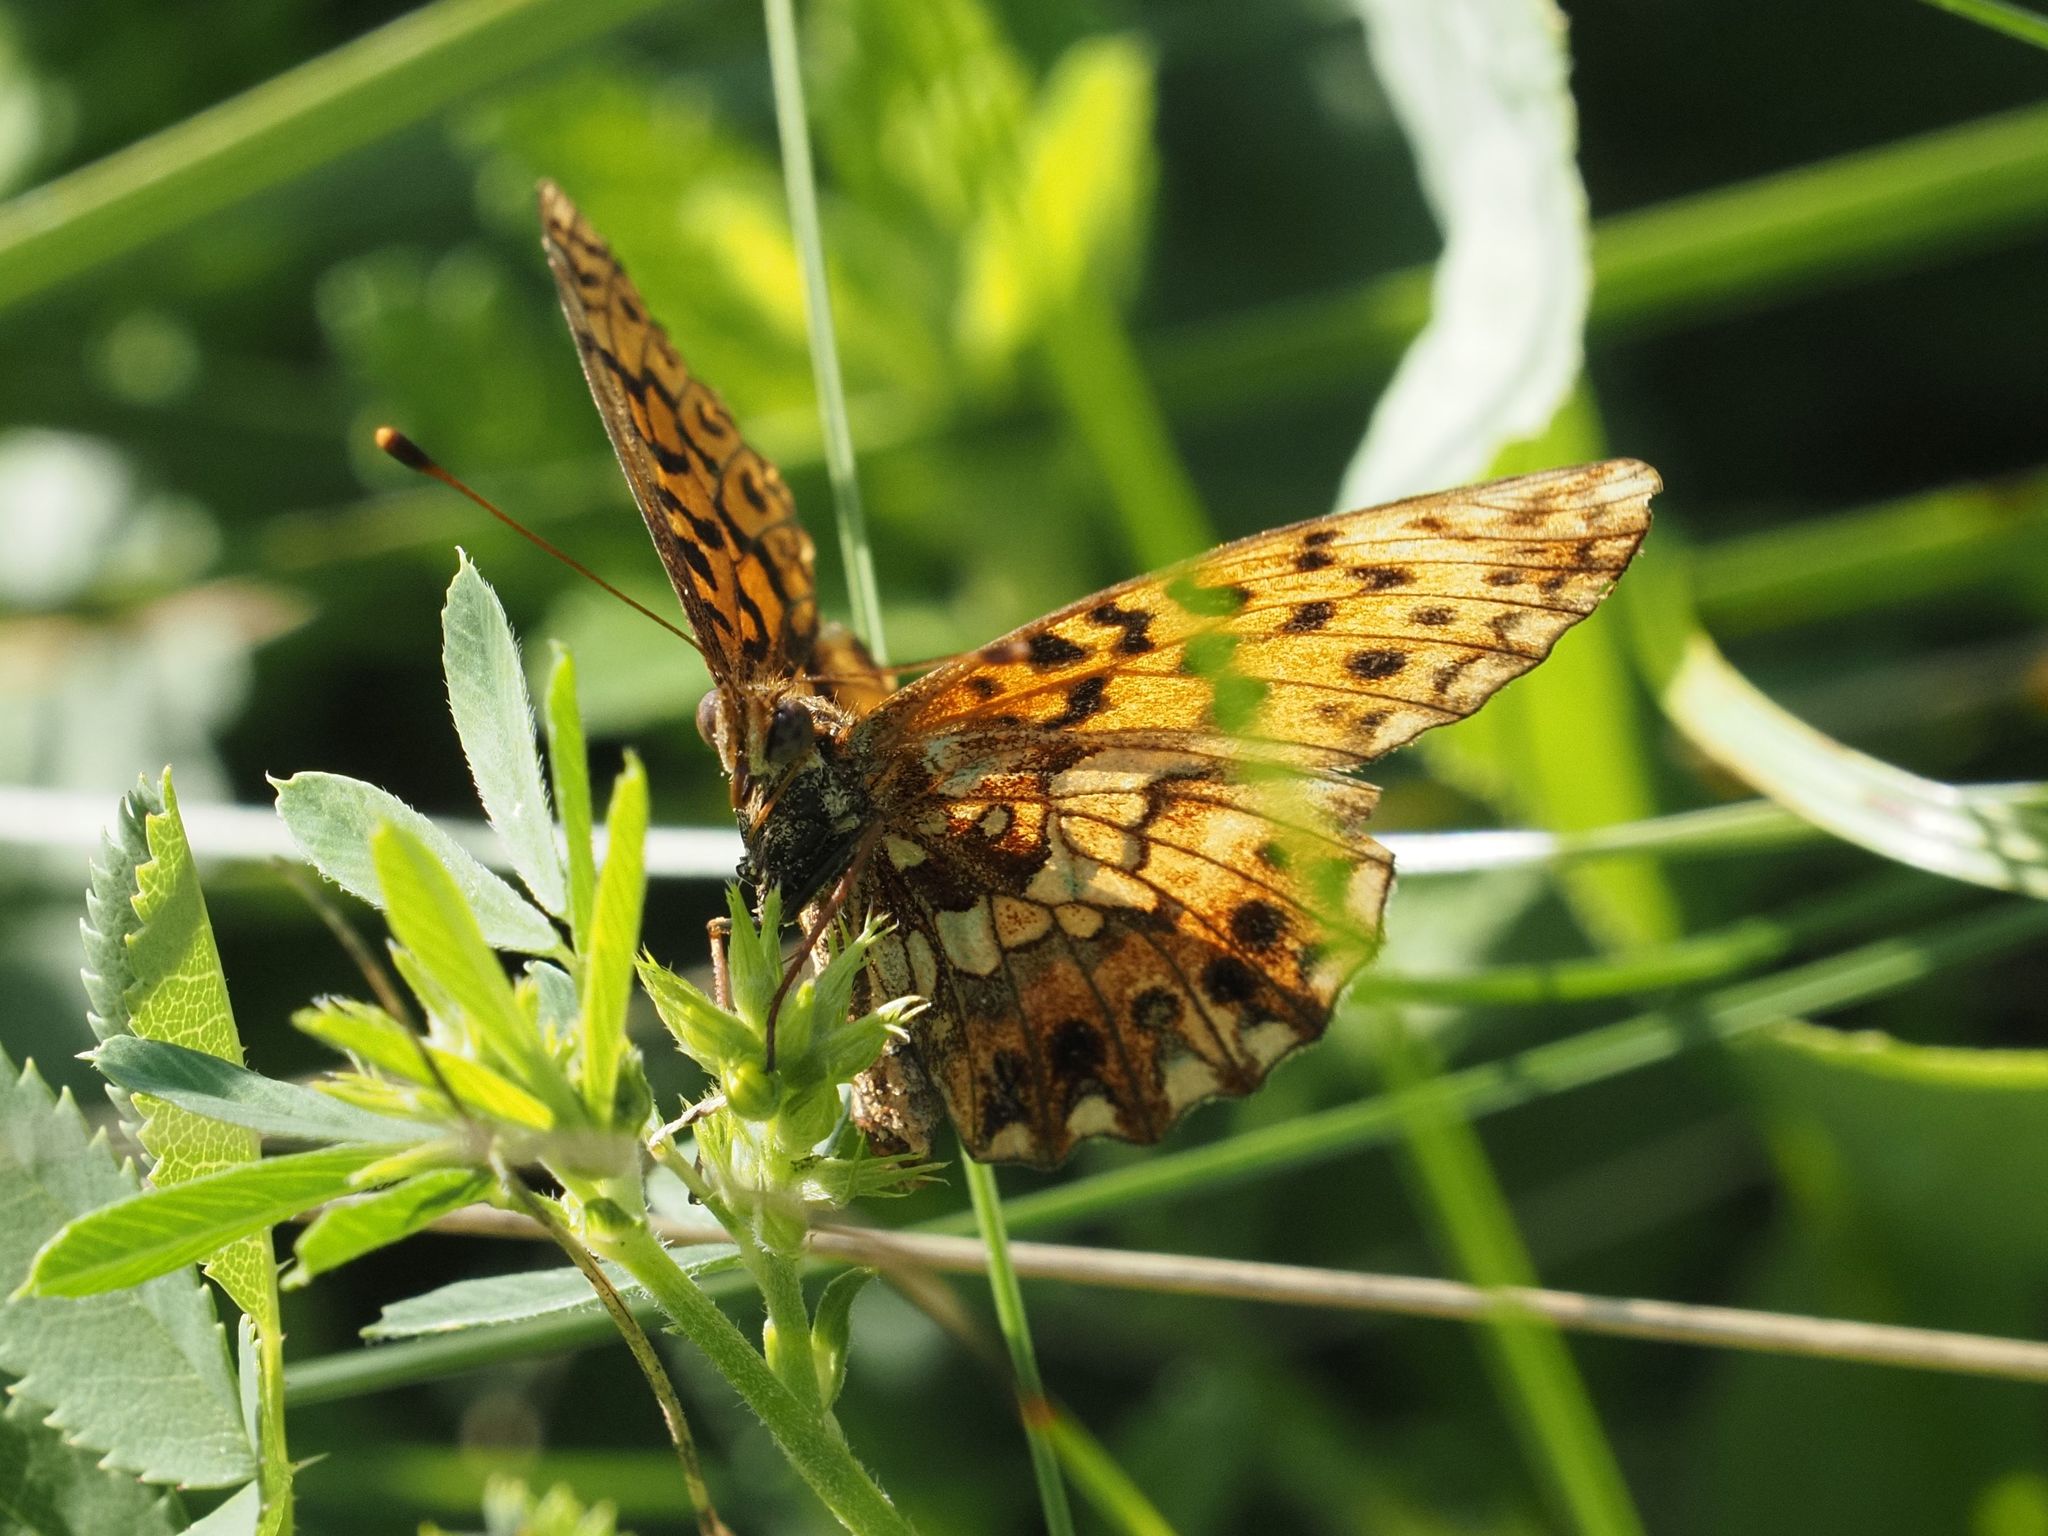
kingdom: Animalia
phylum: Arthropoda
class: Insecta
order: Lepidoptera
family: Nymphalidae
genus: Boloria
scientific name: Boloria dia
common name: Weaver's fritillary
